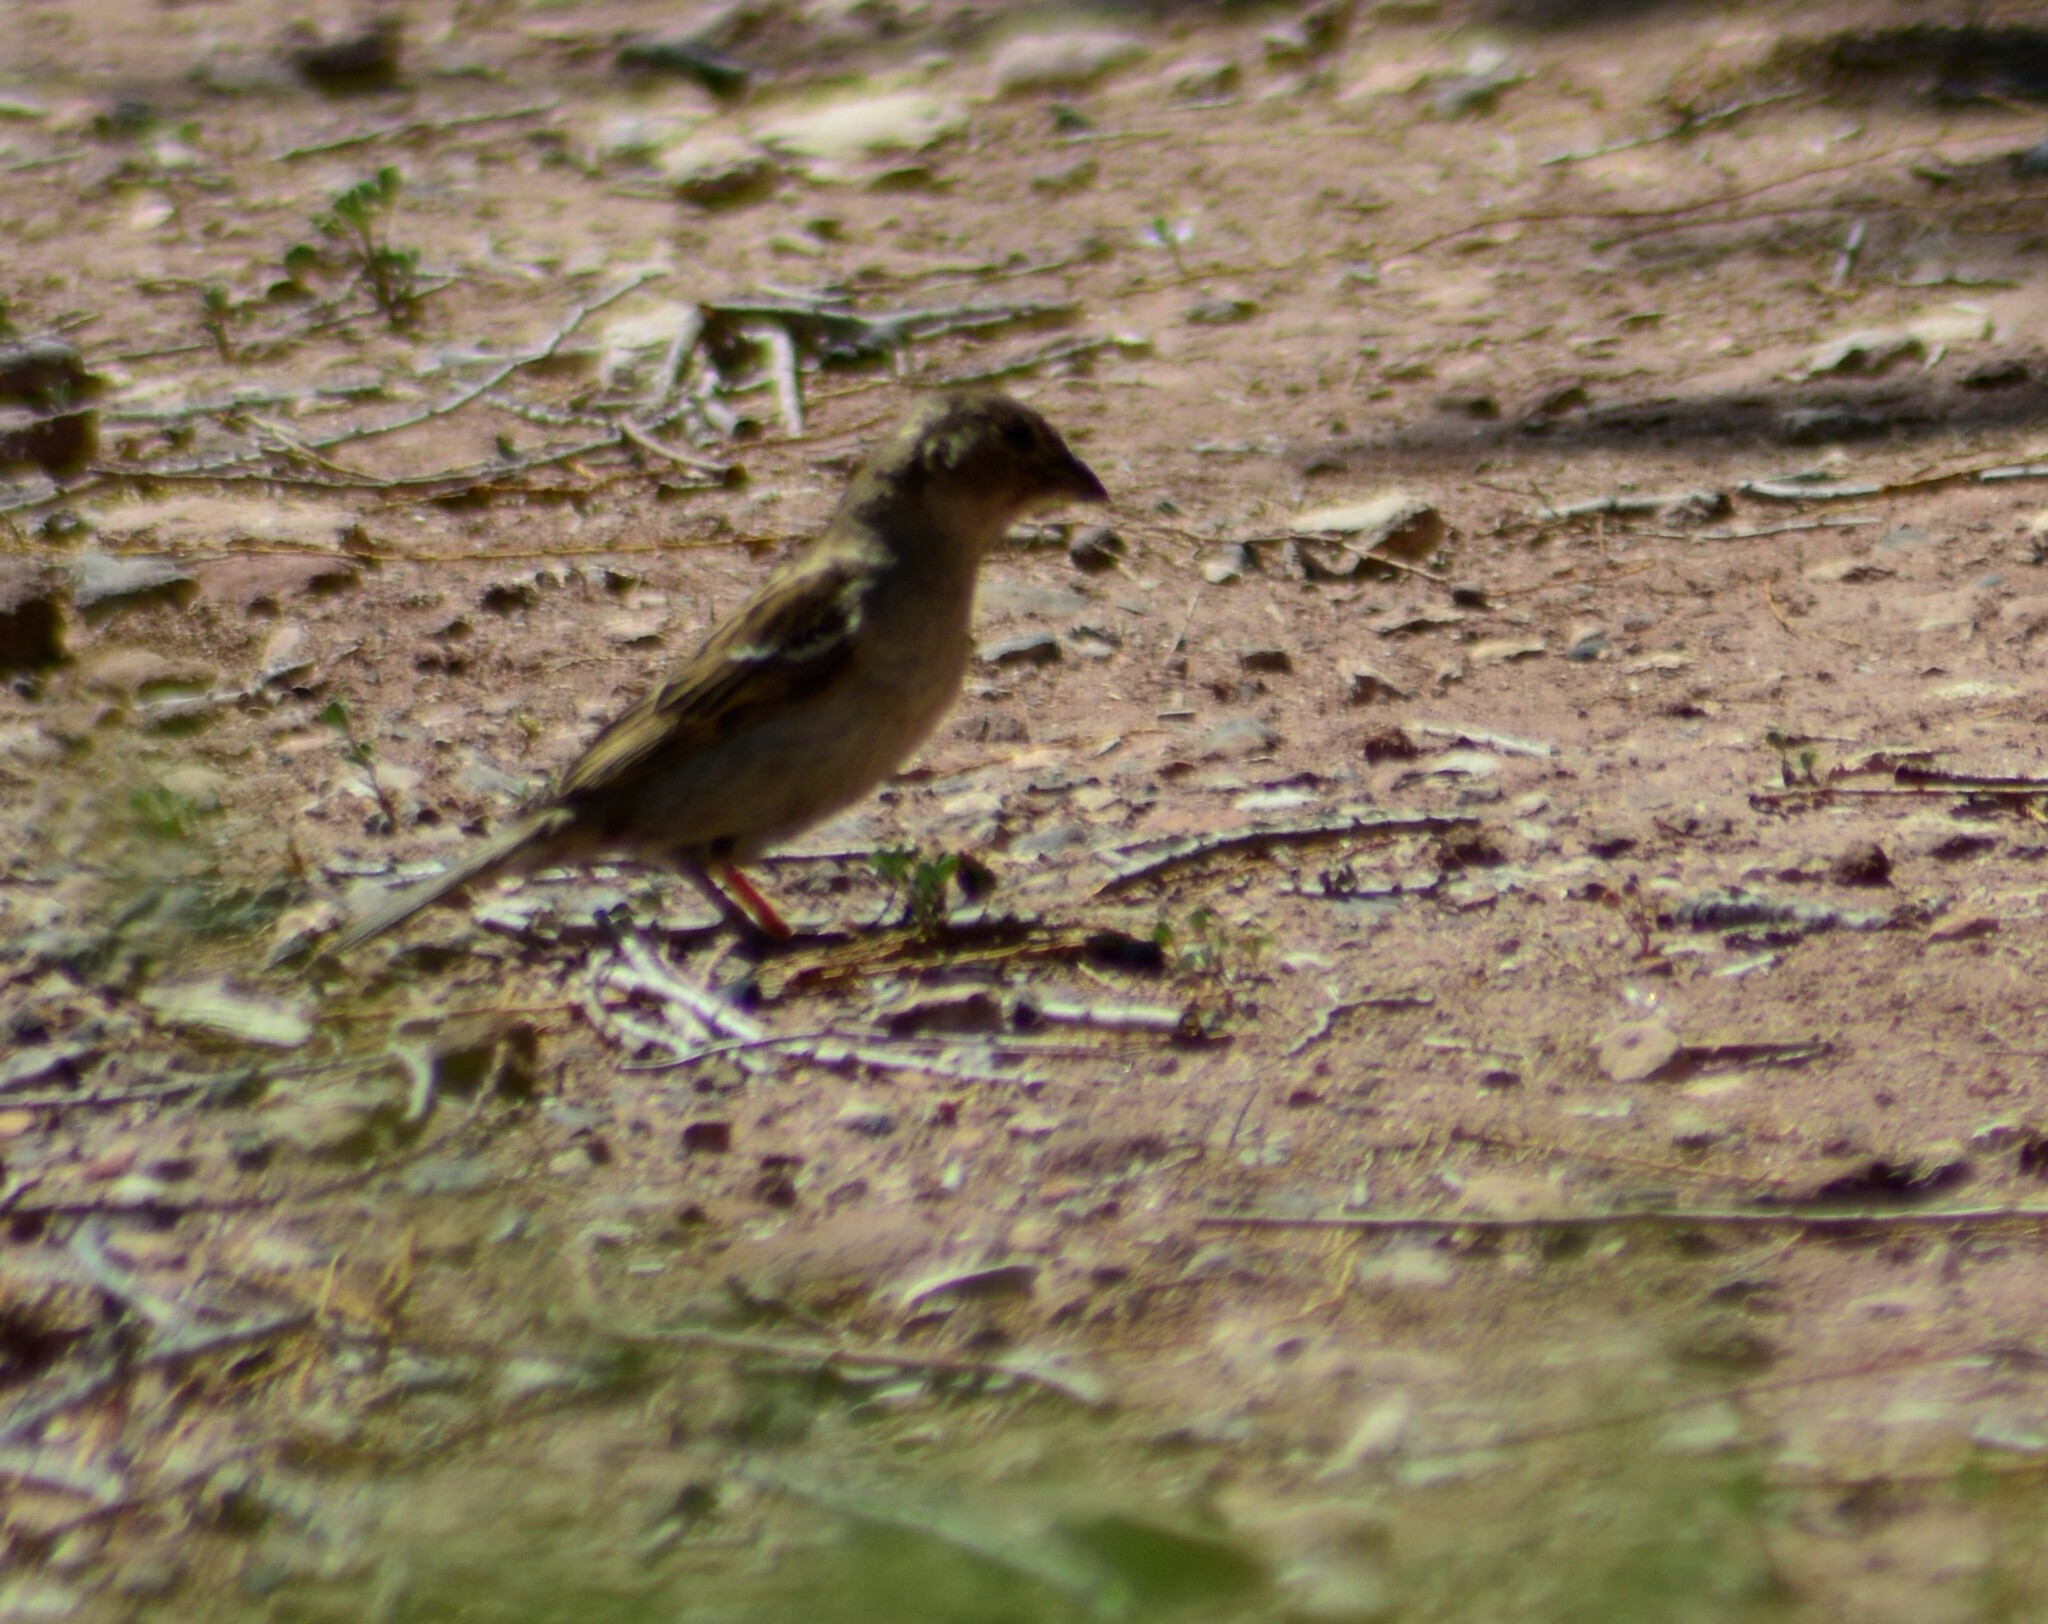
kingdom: Animalia
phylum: Chordata
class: Aves
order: Passeriformes
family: Passeridae
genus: Passer
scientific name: Passer domesticus
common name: House sparrow
